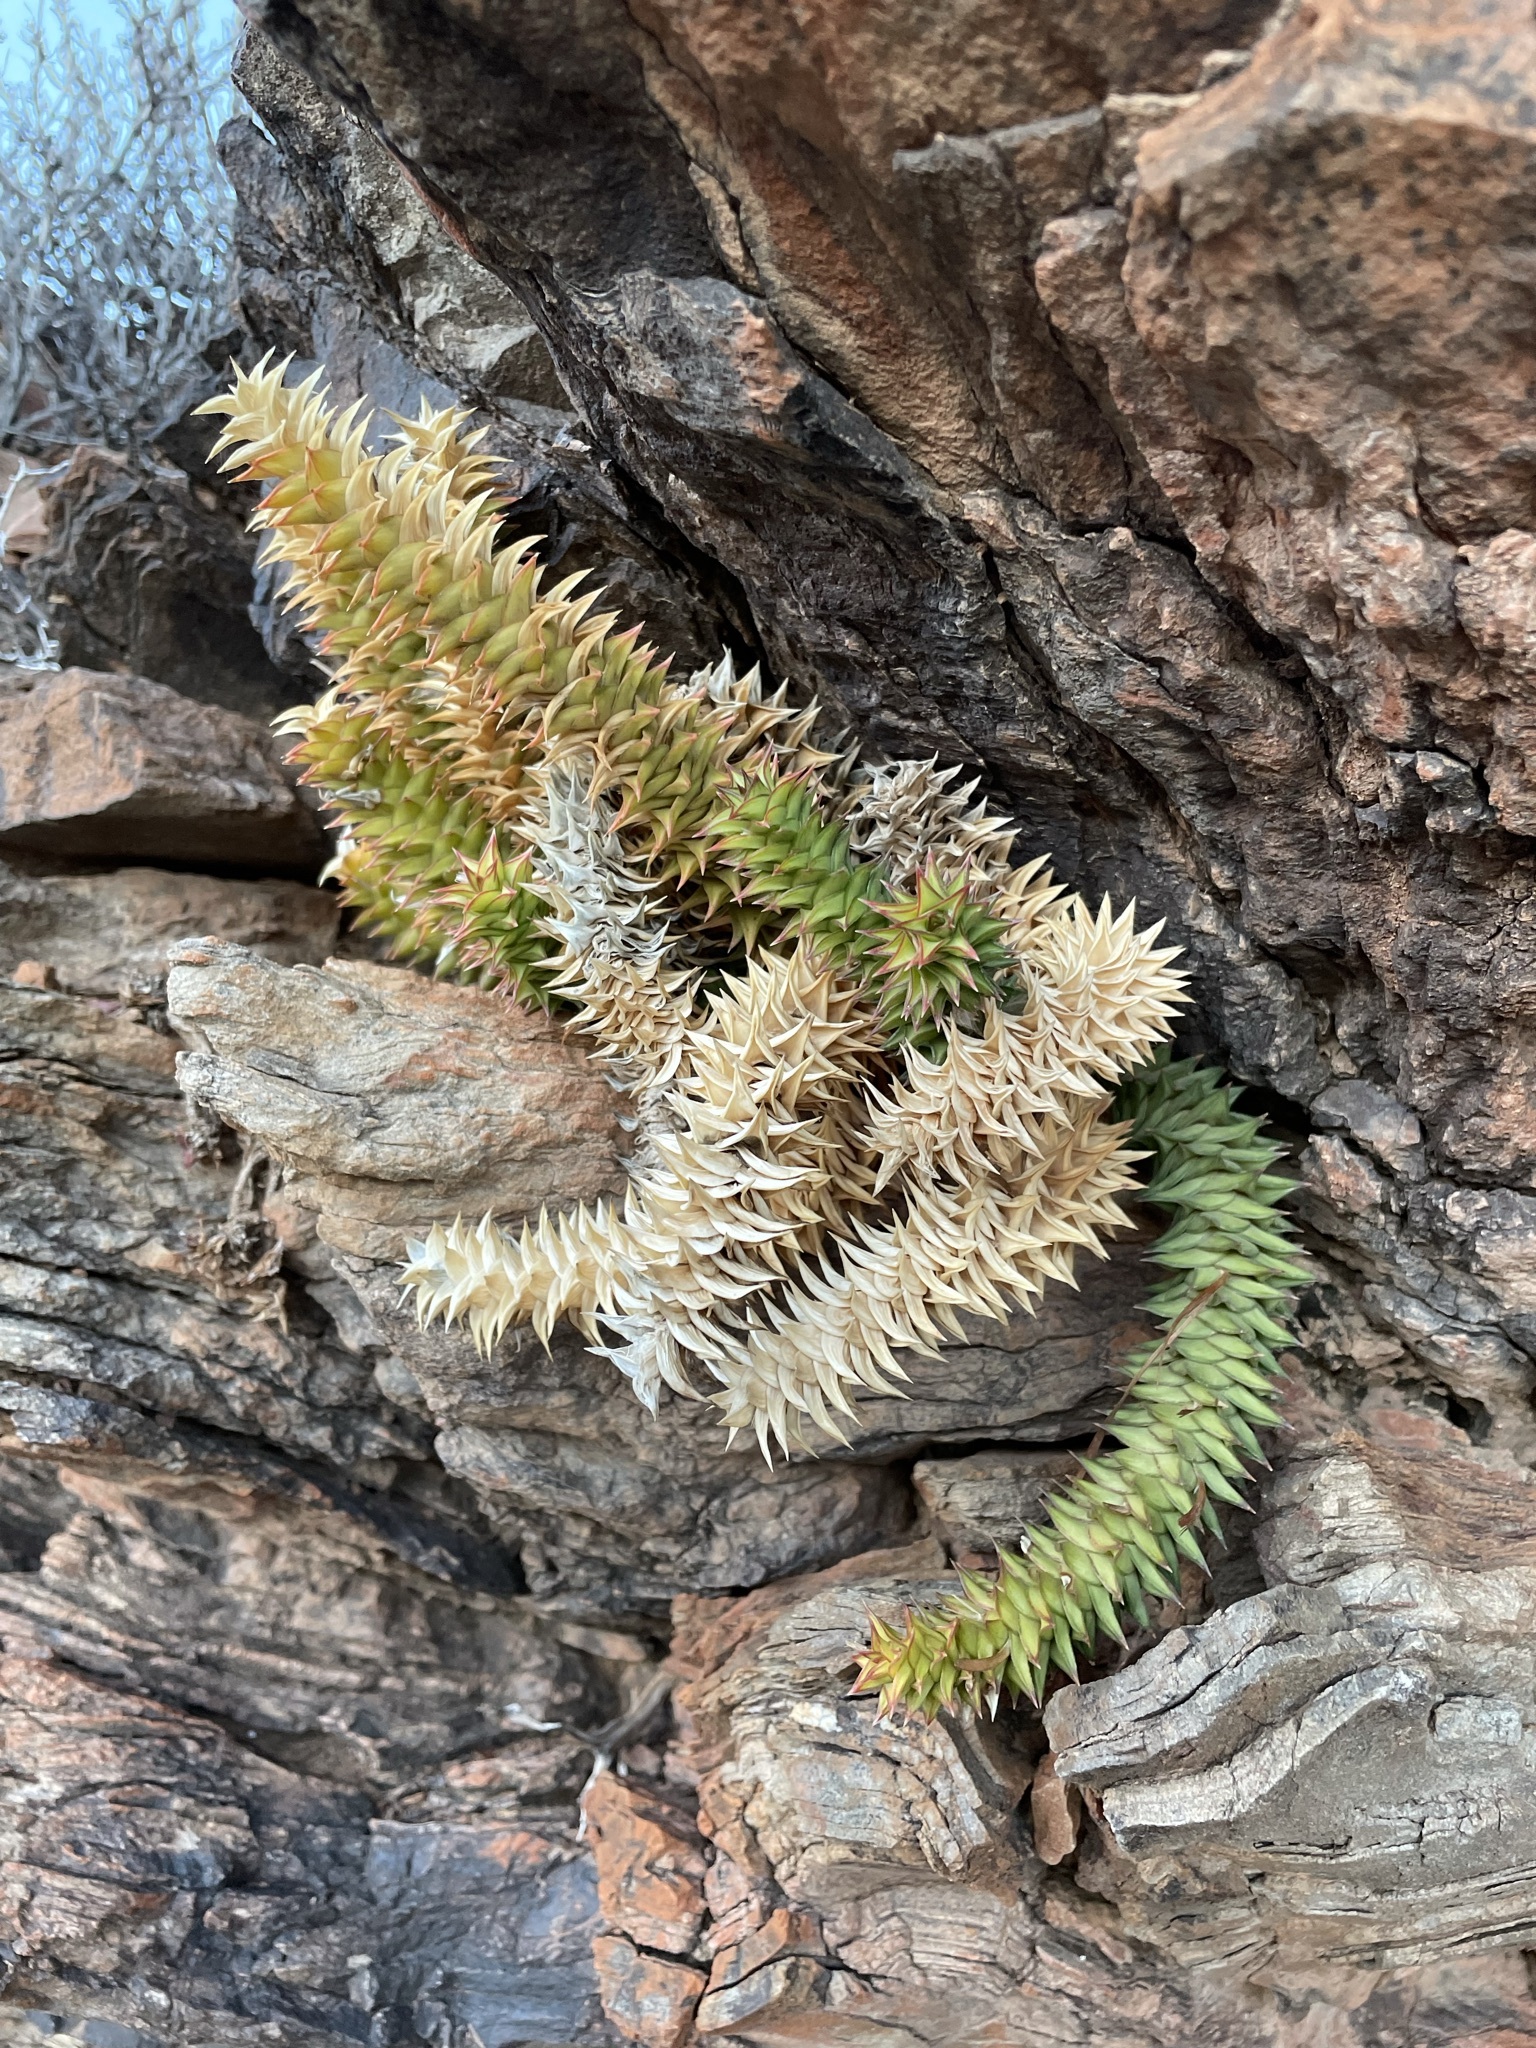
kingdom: Plantae
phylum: Tracheophyta
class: Liliopsida
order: Asparagales
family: Asphodelaceae
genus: Astroloba
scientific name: Astroloba spirella
